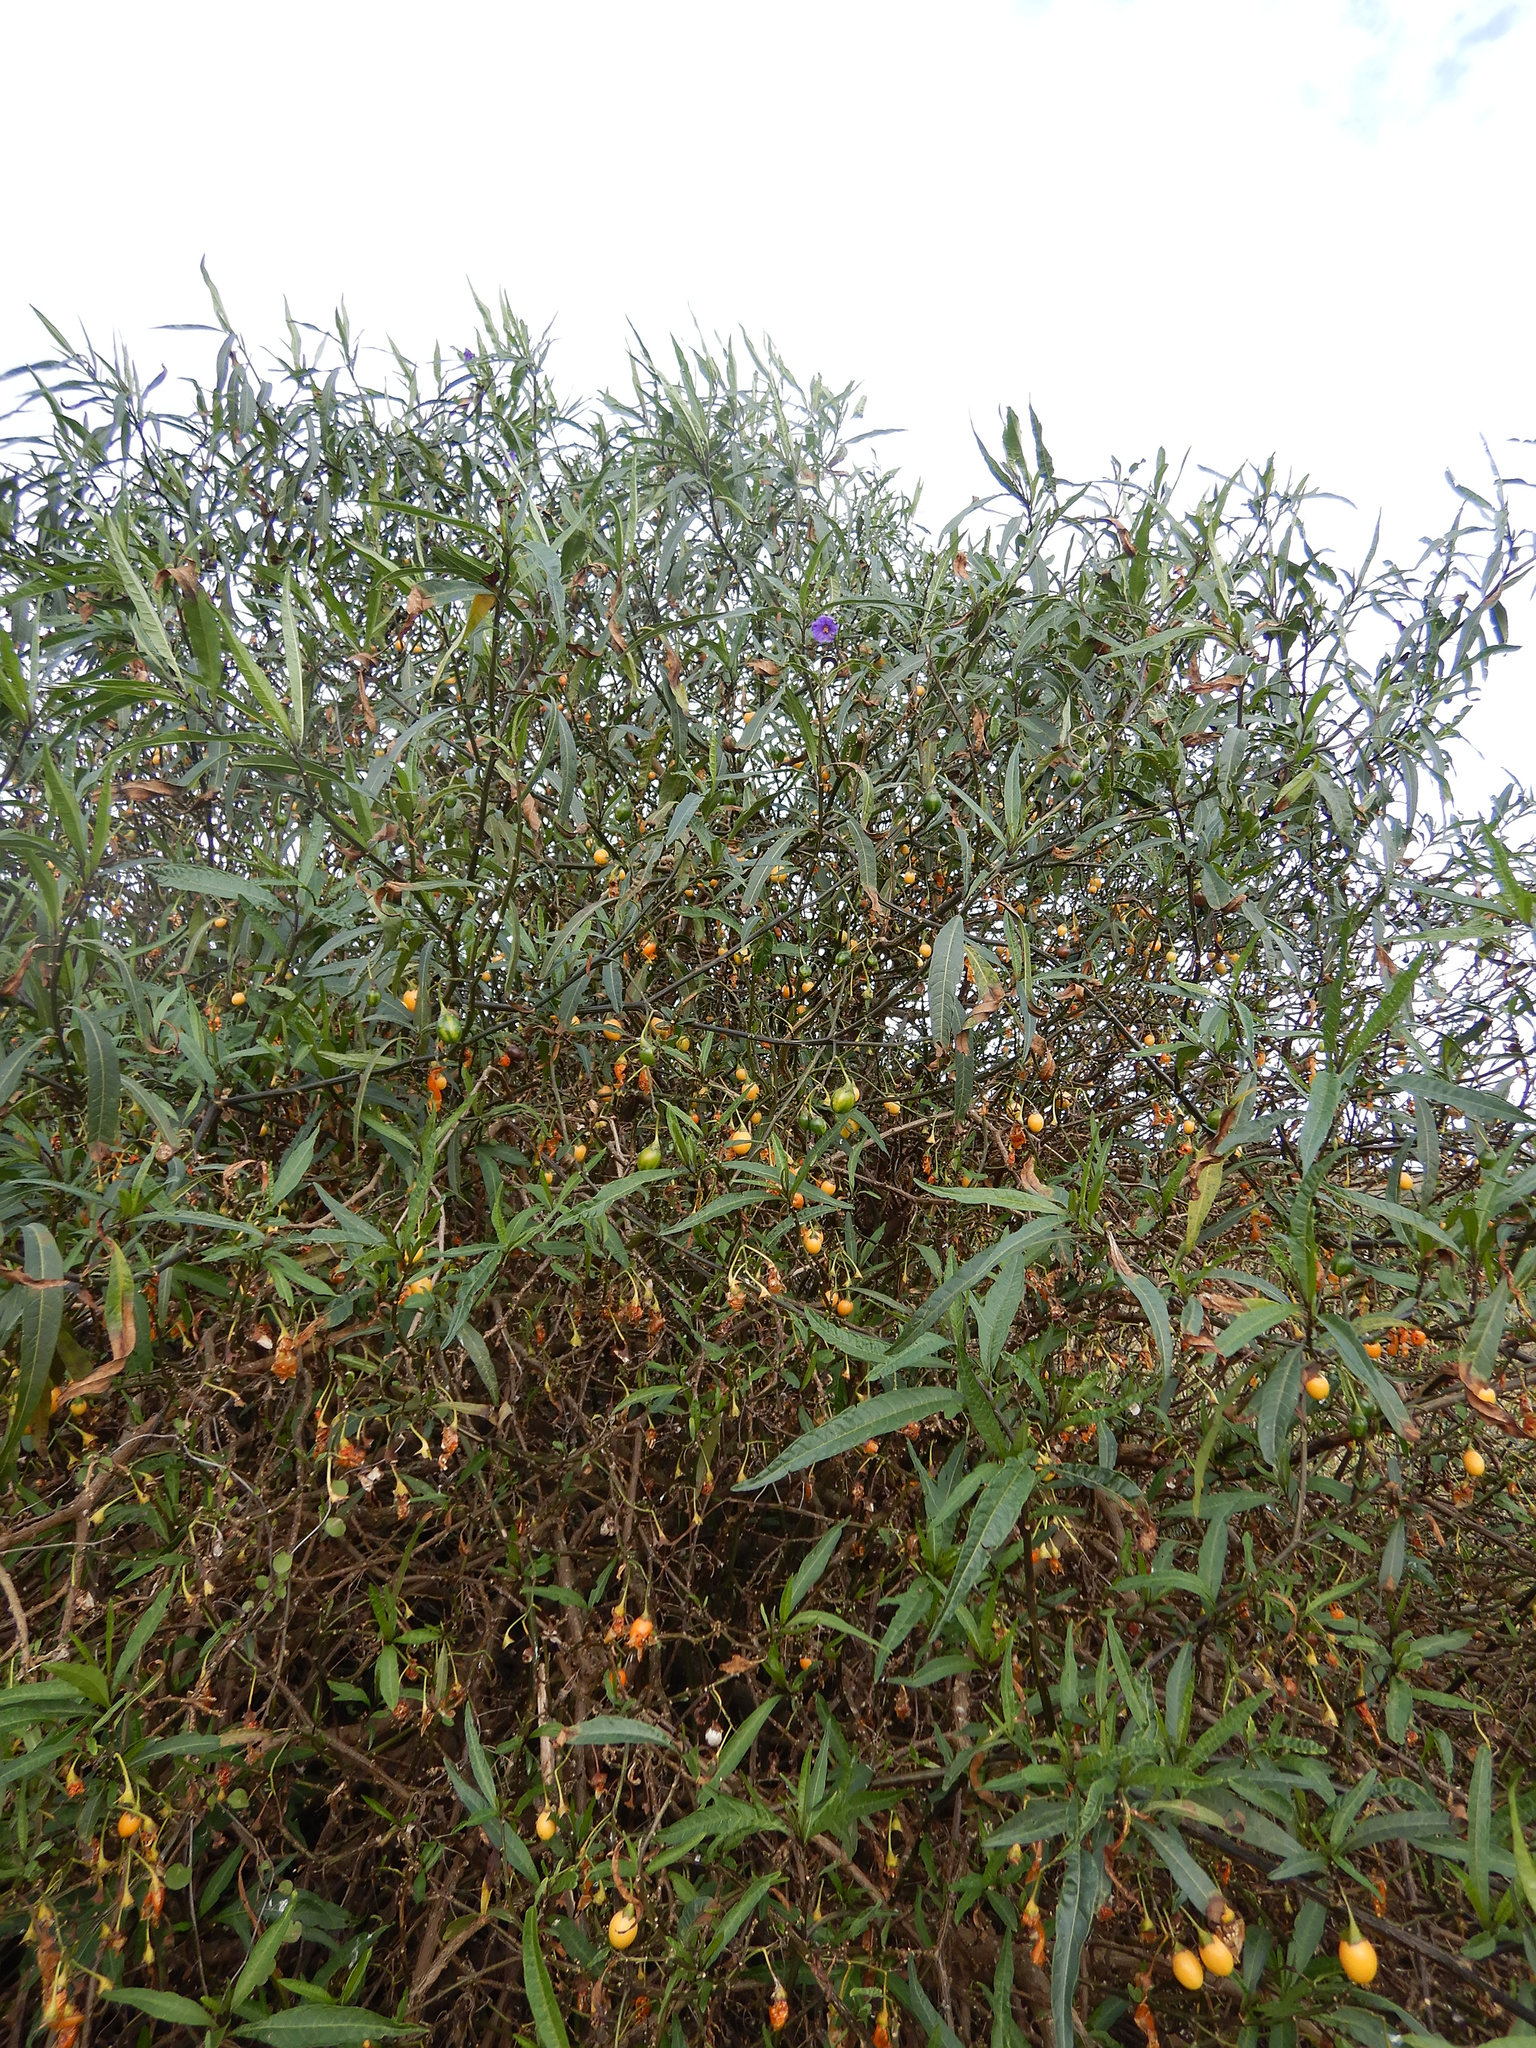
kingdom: Plantae
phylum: Tracheophyta
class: Magnoliopsida
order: Solanales
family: Solanaceae
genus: Solanum
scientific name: Solanum laciniatum
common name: Kangaroo-apple
